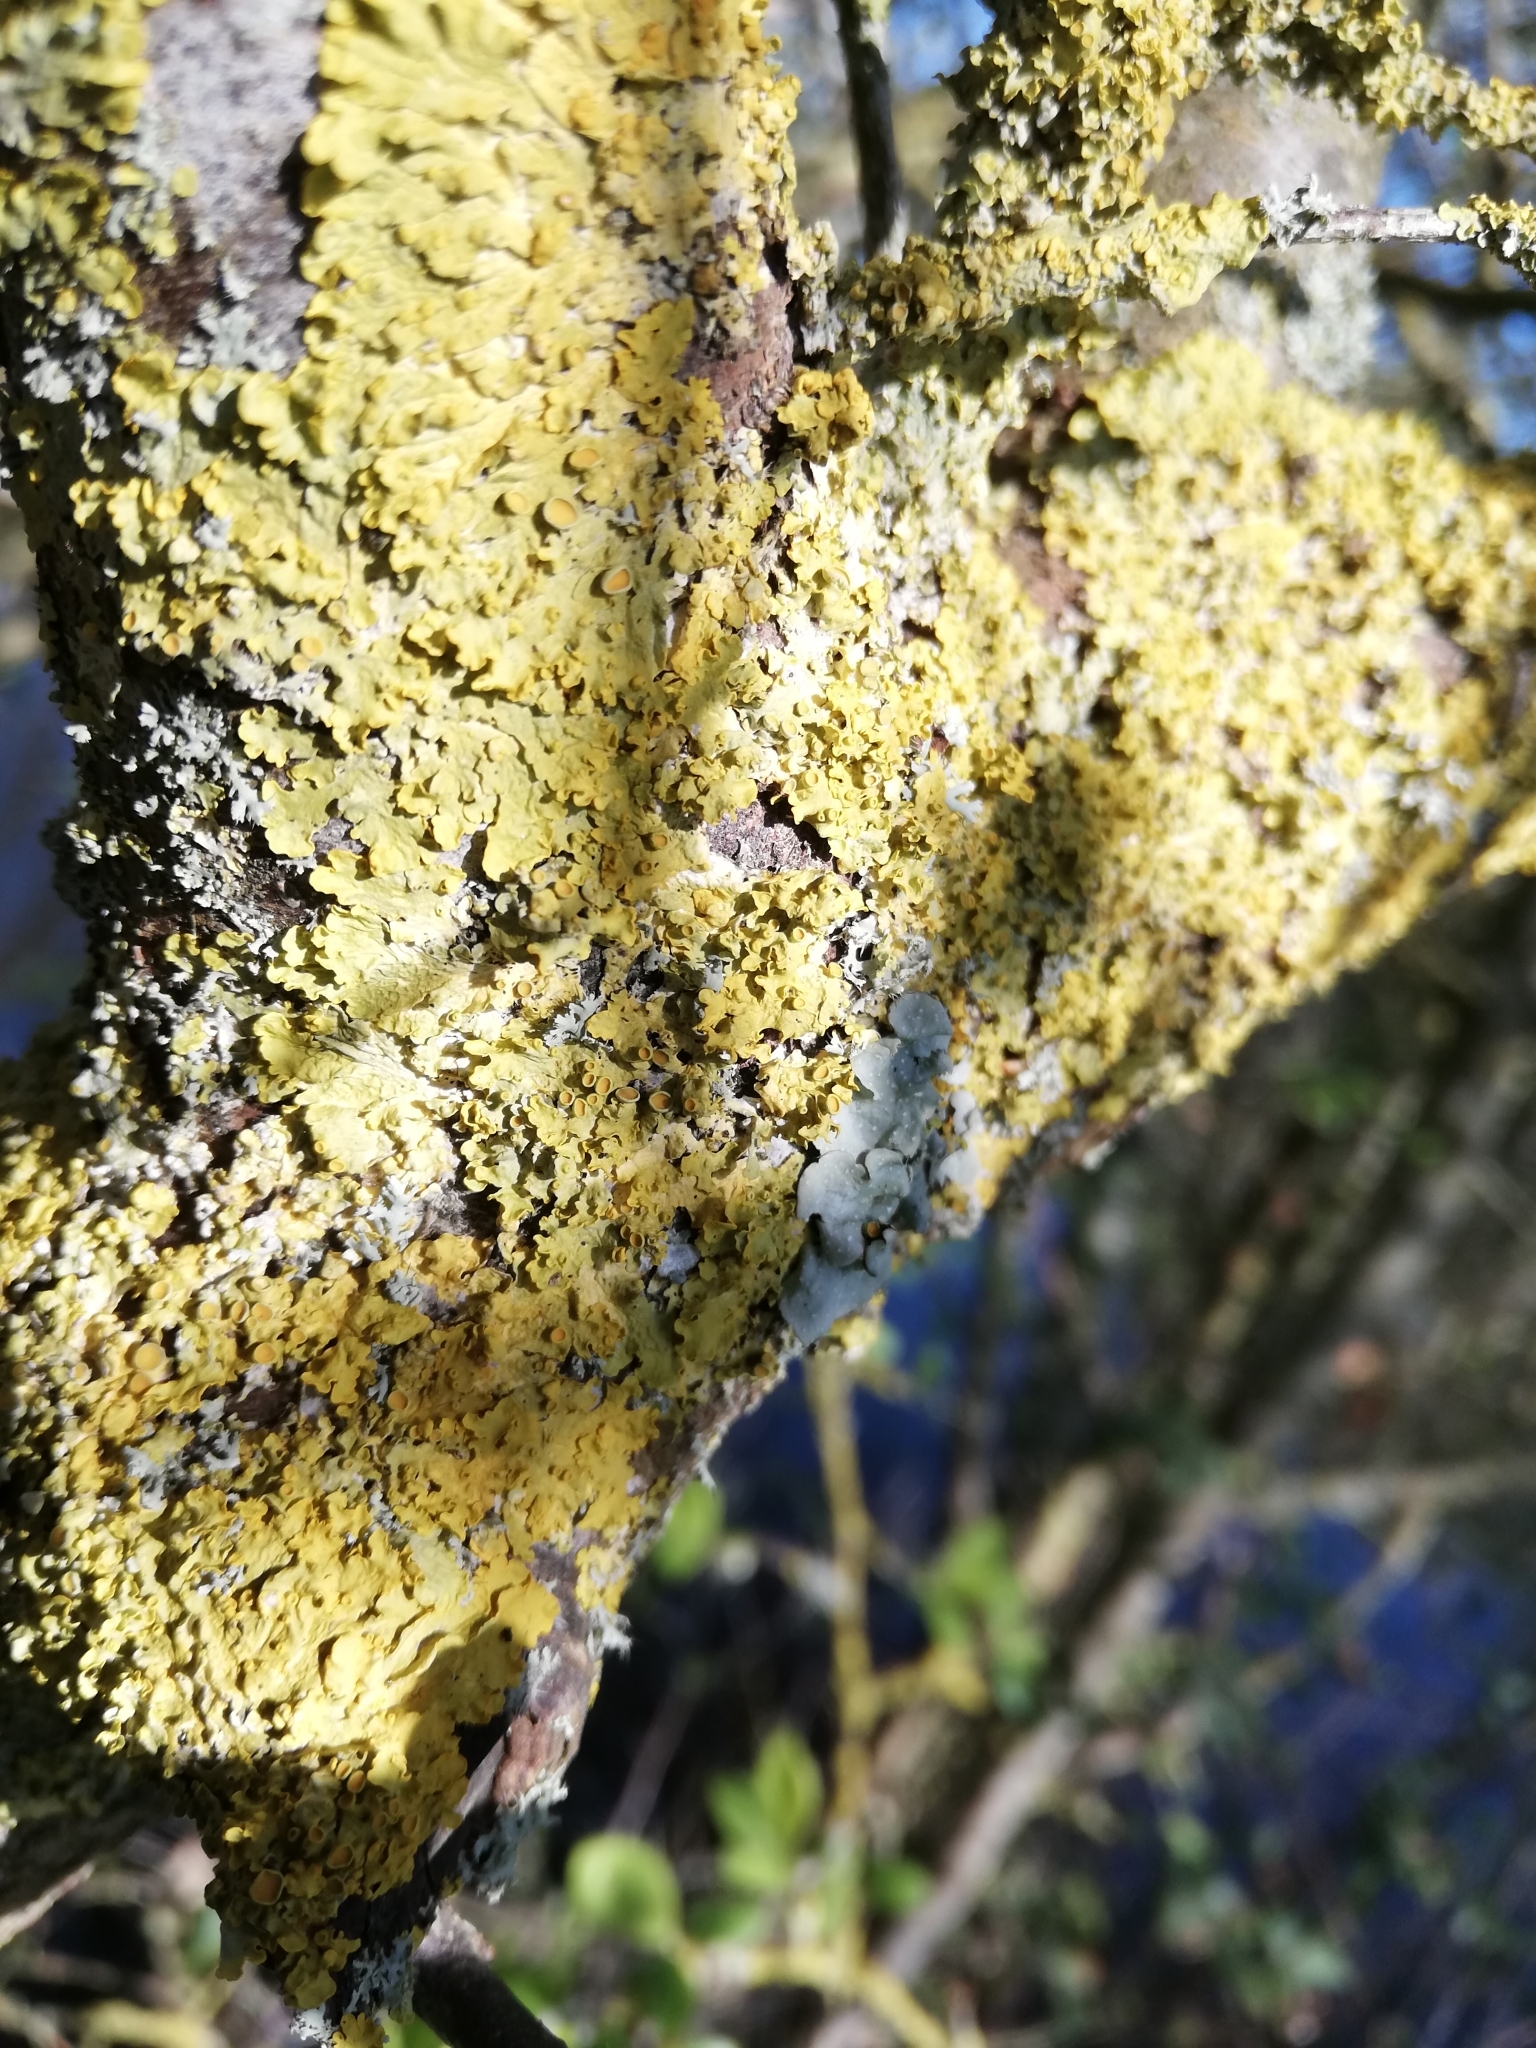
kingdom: Fungi
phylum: Ascomycota
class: Lecanoromycetes
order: Teloschistales
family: Teloschistaceae
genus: Xanthoria
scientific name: Xanthoria parietina
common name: Common orange lichen
